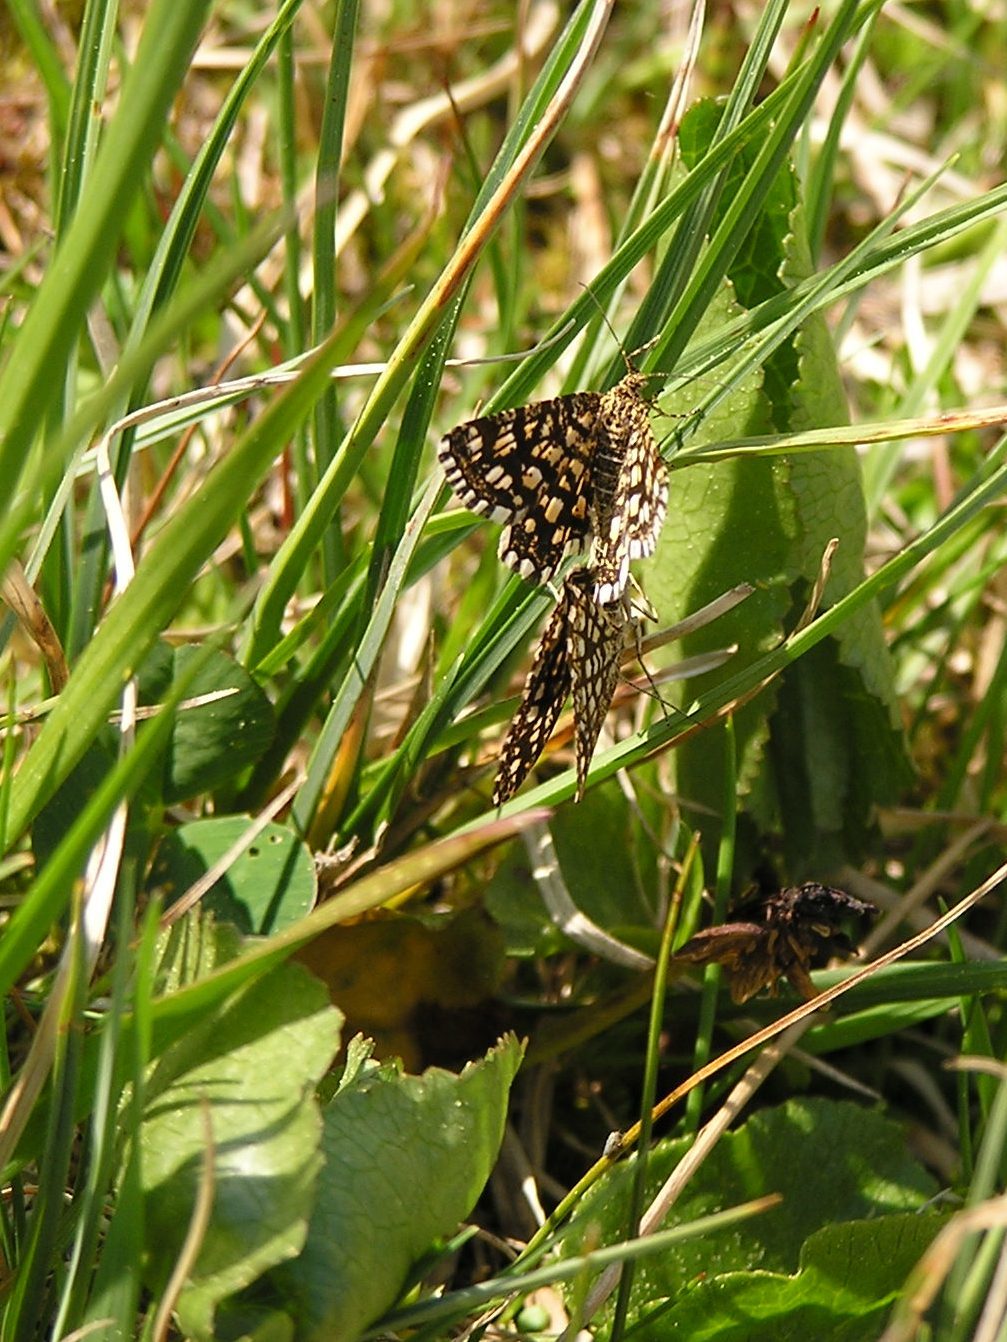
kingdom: Animalia
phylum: Arthropoda
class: Insecta
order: Lepidoptera
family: Geometridae
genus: Chiasmia
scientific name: Chiasmia clathrata
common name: Latticed heath
